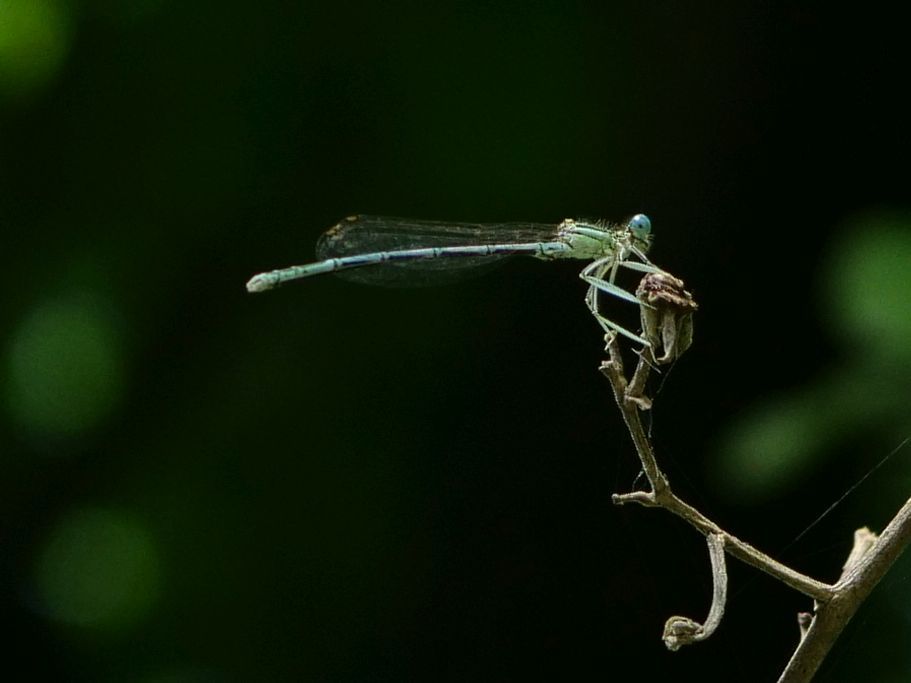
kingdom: Animalia
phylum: Arthropoda
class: Insecta
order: Odonata
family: Platycnemididae
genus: Platycnemis
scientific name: Platycnemis pennipes
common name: White-legged damselfly
